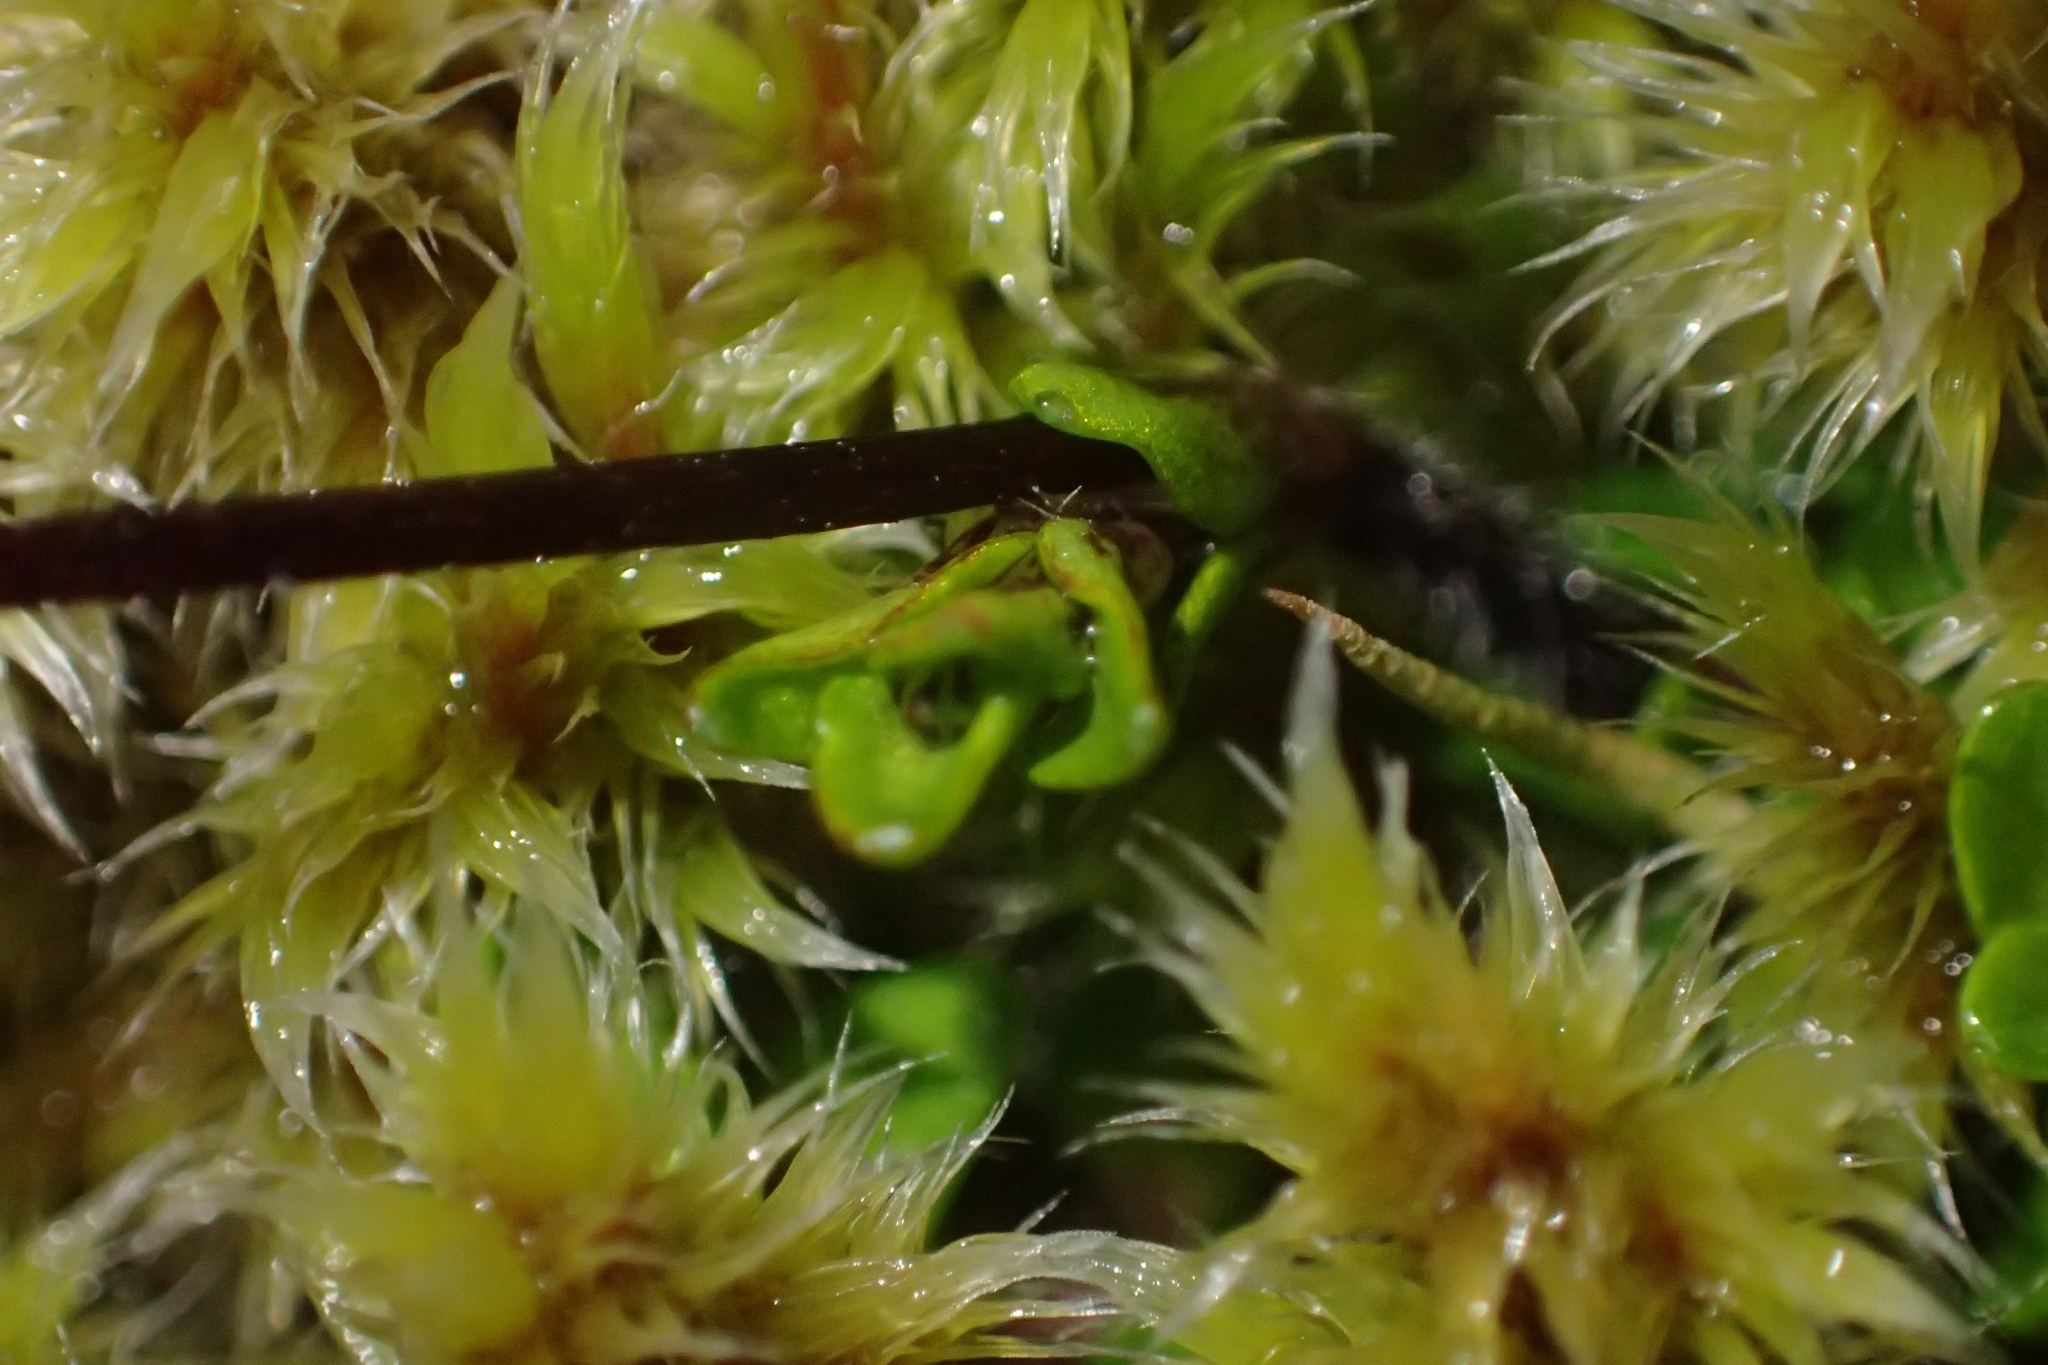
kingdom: Plantae
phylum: Tracheophyta
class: Magnoliopsida
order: Lamiales
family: Plantaginaceae
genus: Ourisia
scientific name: Ourisia caespitosa
